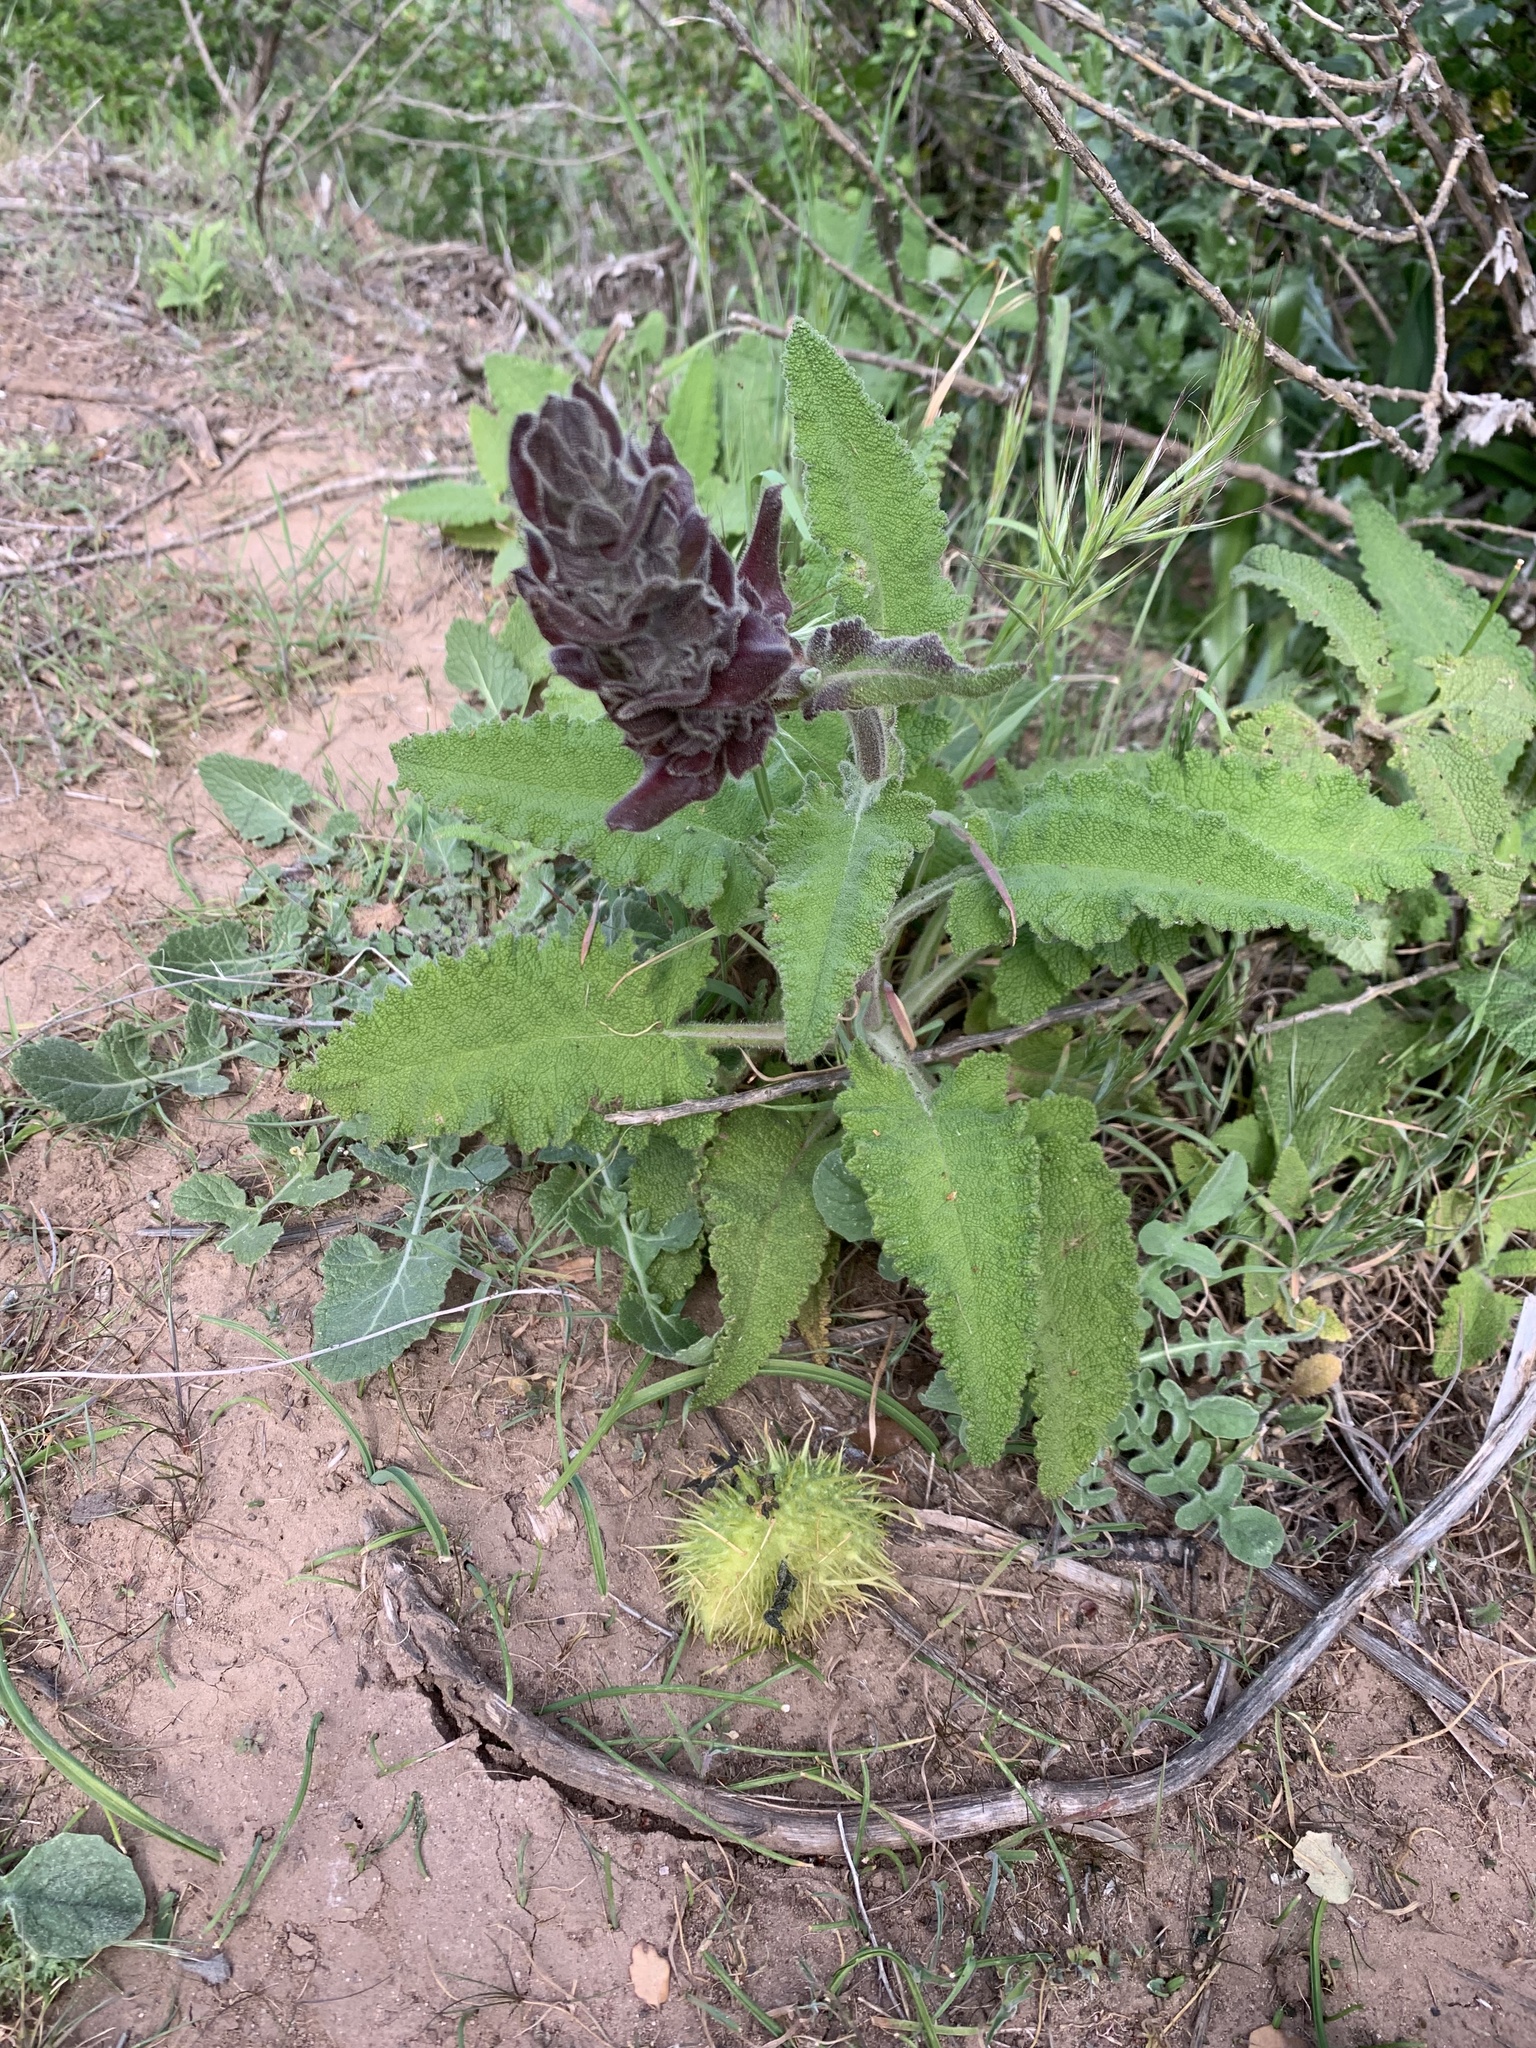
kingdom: Plantae
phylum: Tracheophyta
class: Magnoliopsida
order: Lamiales
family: Lamiaceae
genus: Salvia
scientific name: Salvia spathacea
